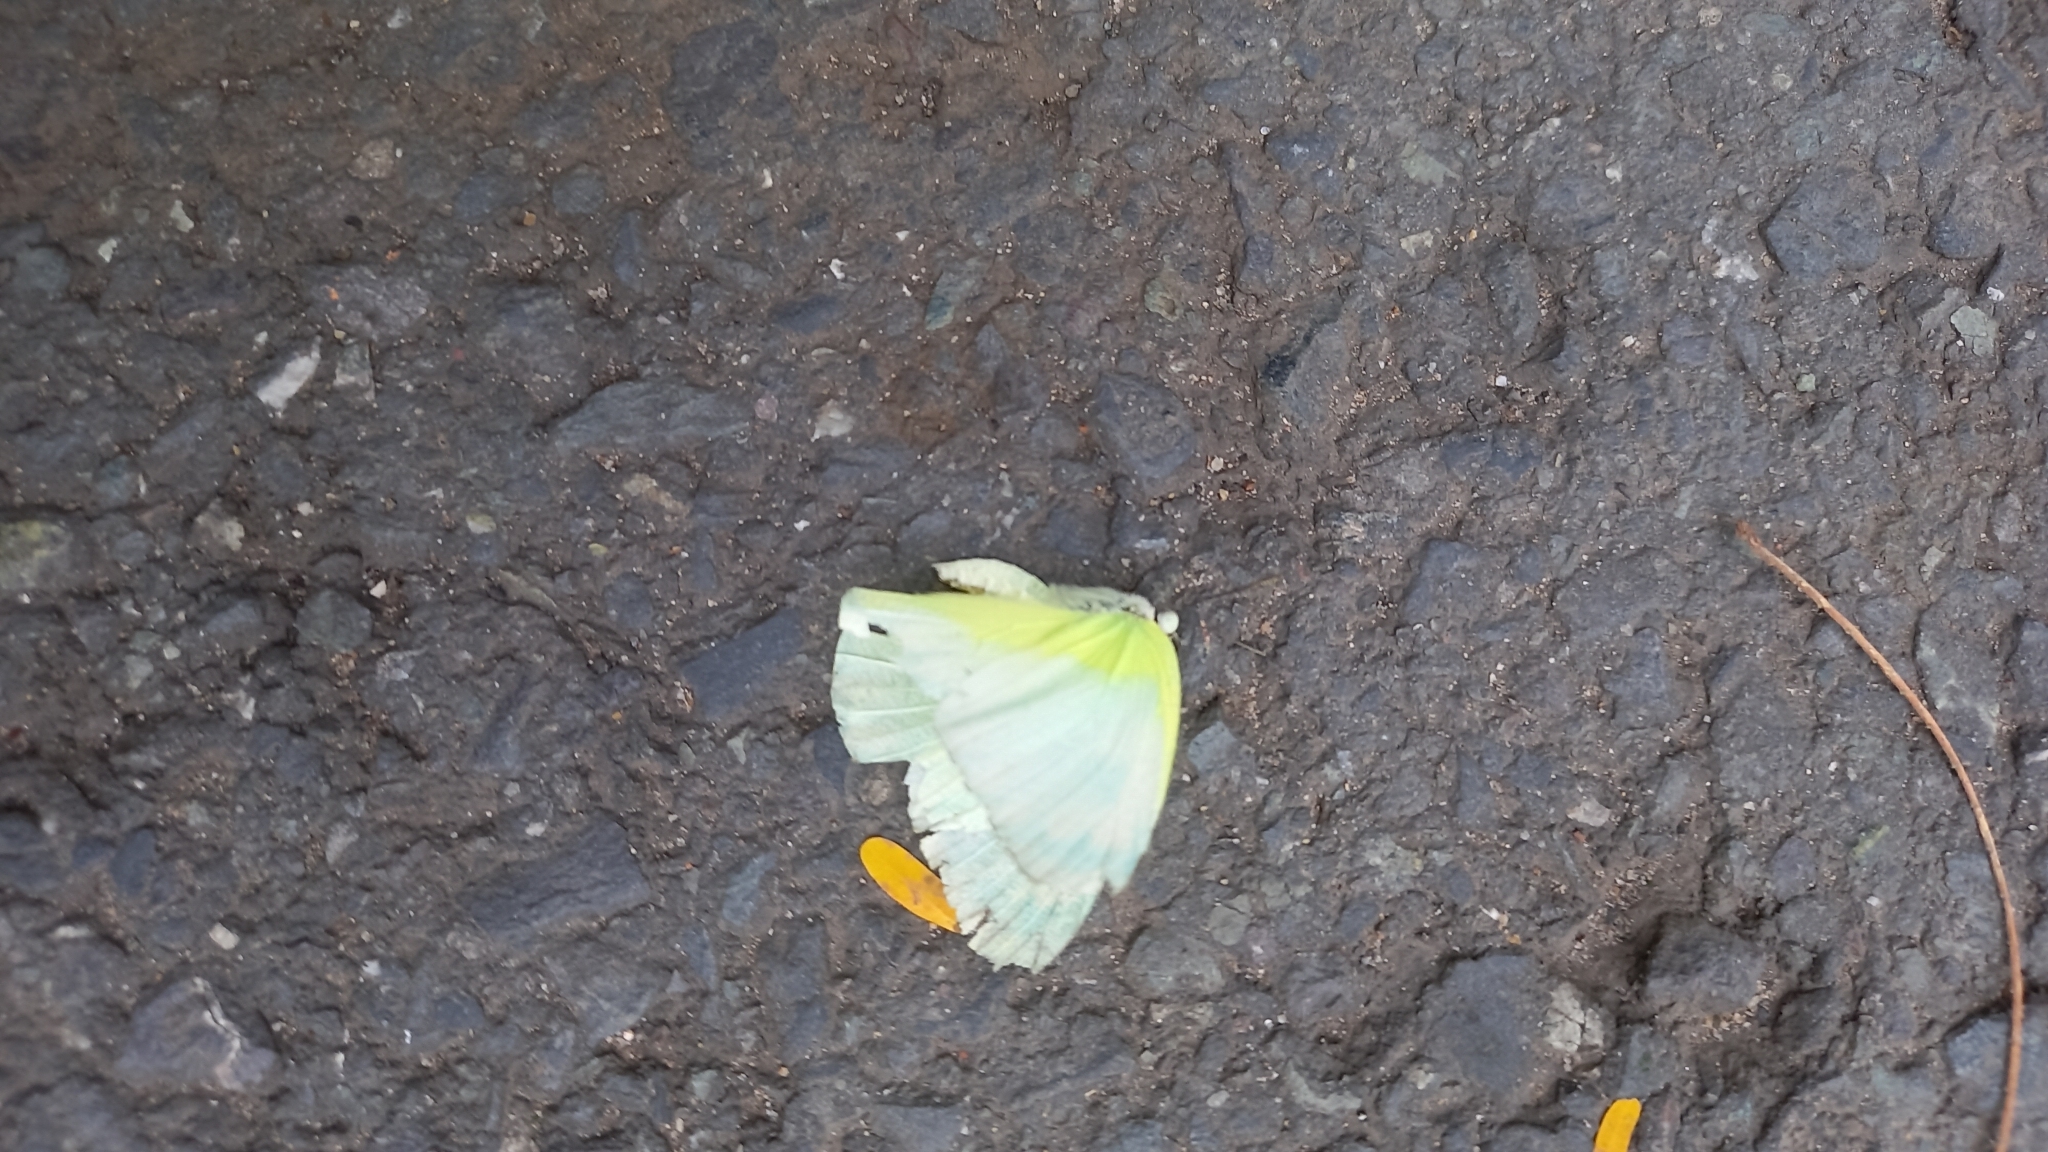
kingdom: Animalia
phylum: Arthropoda
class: Insecta
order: Lepidoptera
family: Pieridae
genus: Catopsilia
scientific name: Catopsilia pomona
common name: Common emigrant
